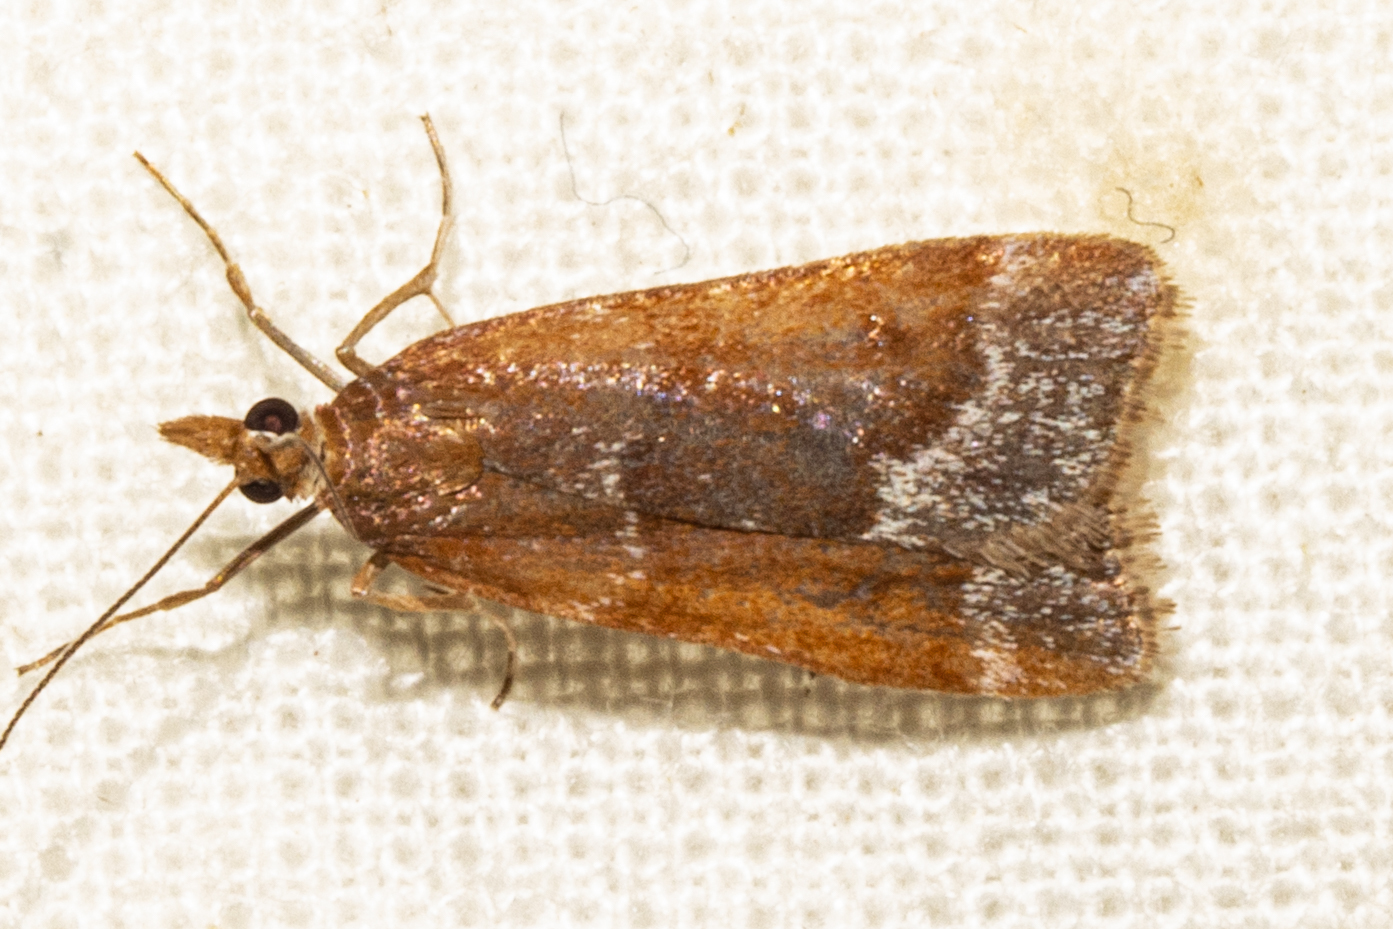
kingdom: Animalia
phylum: Arthropoda
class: Insecta
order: Lepidoptera
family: Crambidae
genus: Eudonia
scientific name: Eudonia feredayi
